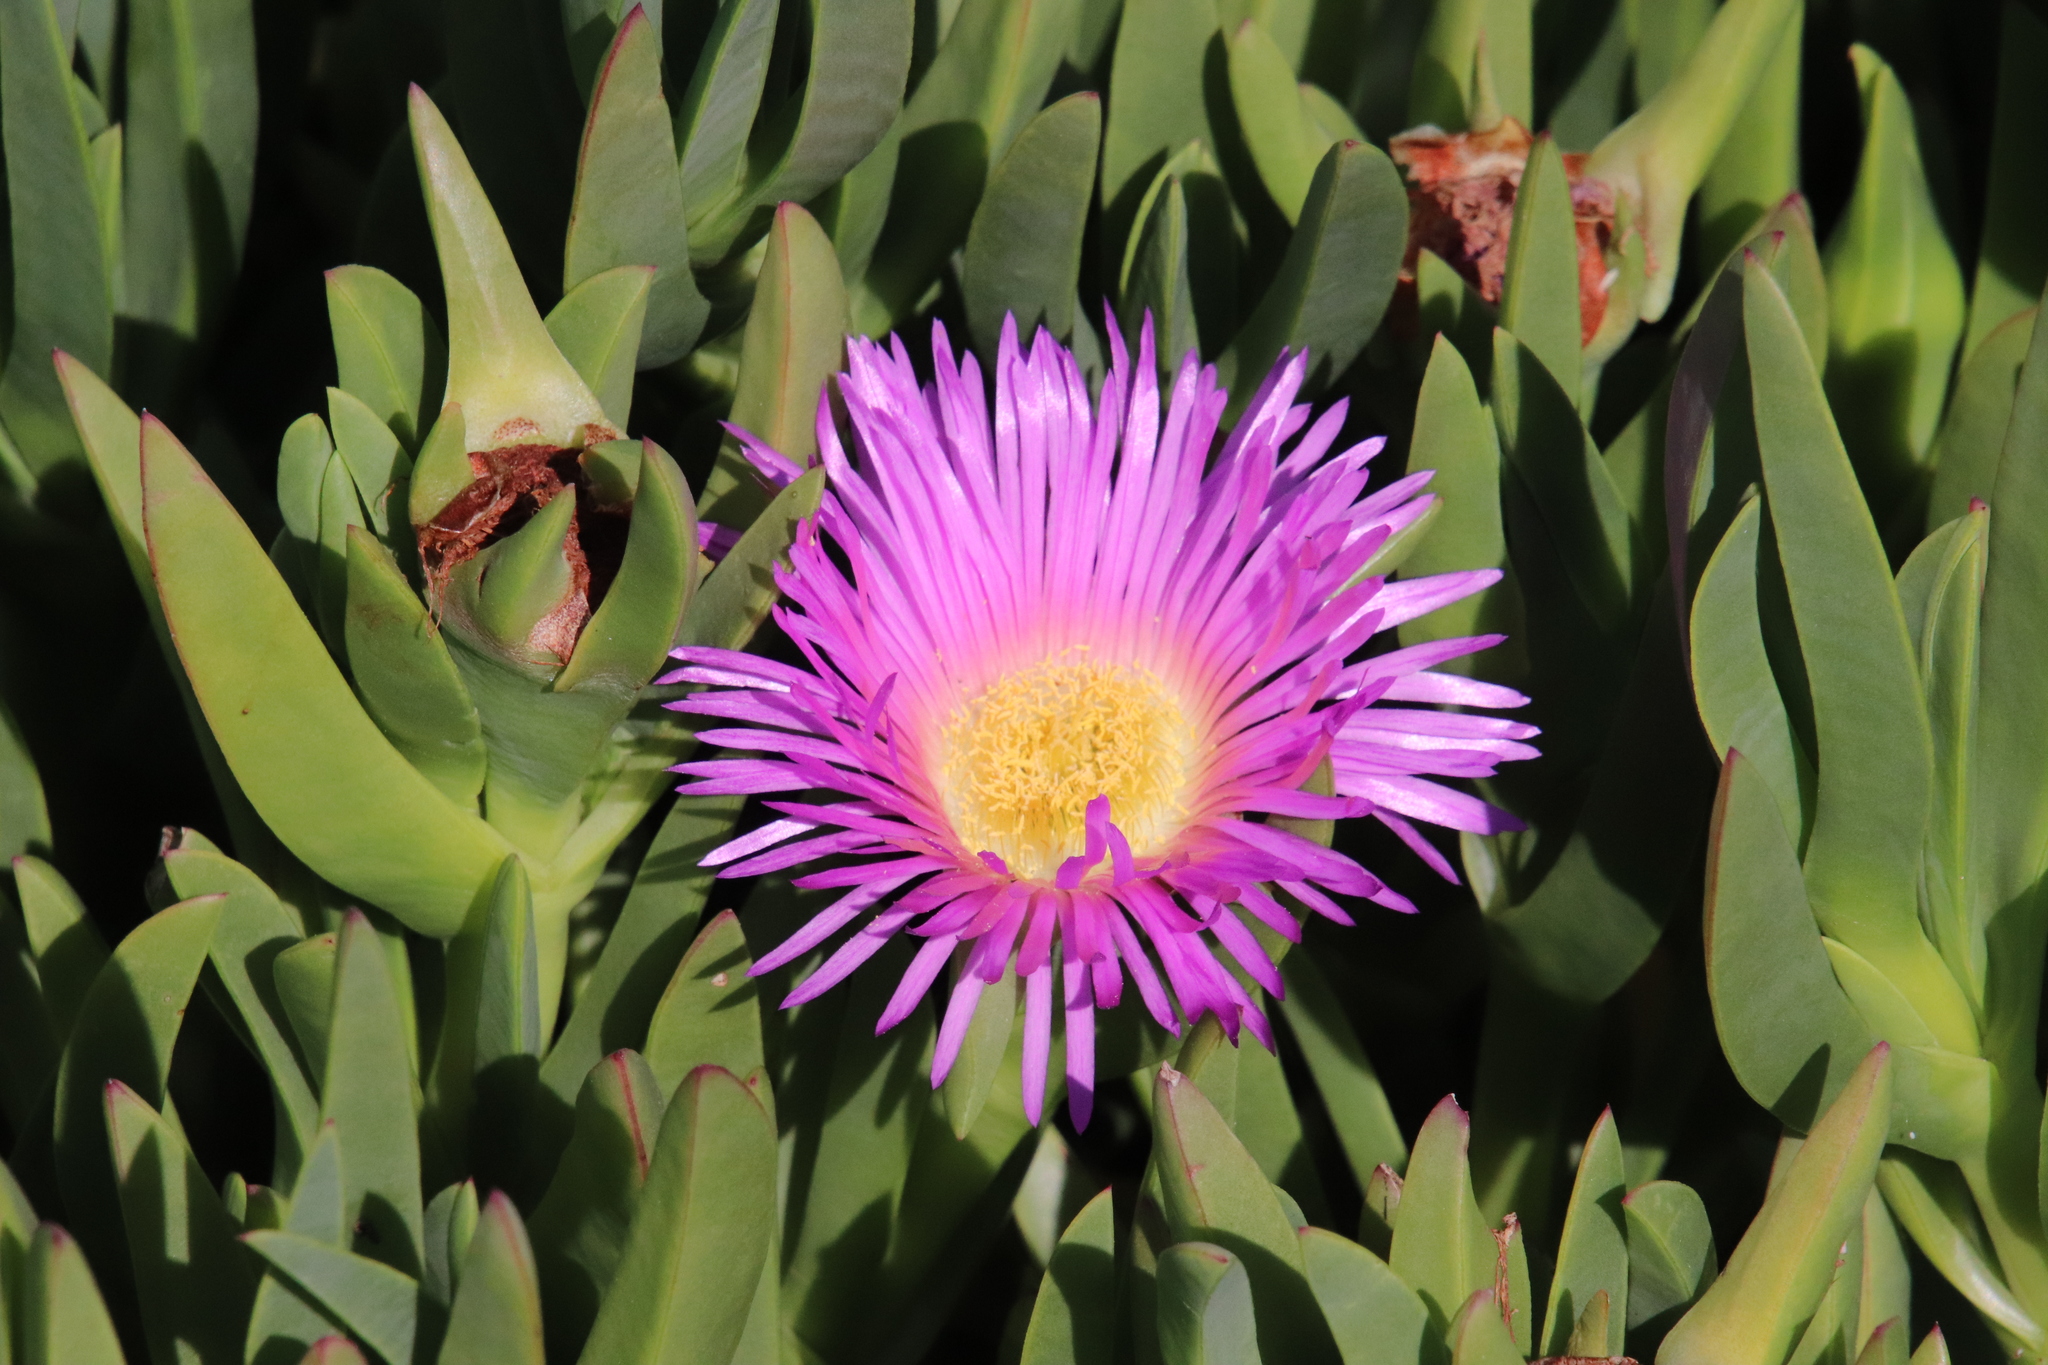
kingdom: Plantae
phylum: Tracheophyta
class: Magnoliopsida
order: Caryophyllales
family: Aizoaceae
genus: Carpobrotus
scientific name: Carpobrotus chilensis
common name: Sea fig
